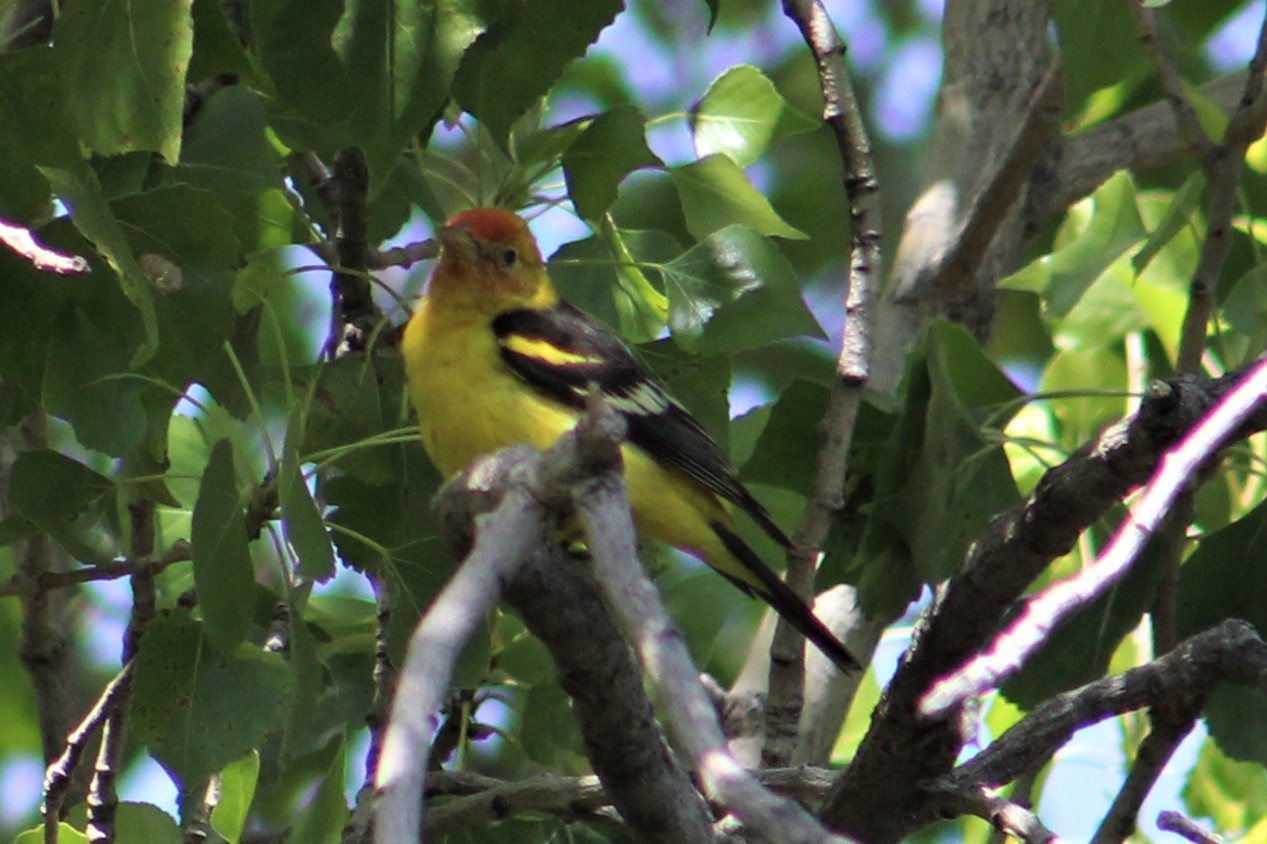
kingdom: Animalia
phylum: Chordata
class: Aves
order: Passeriformes
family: Cardinalidae
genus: Piranga
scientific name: Piranga ludoviciana
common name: Western tanager
